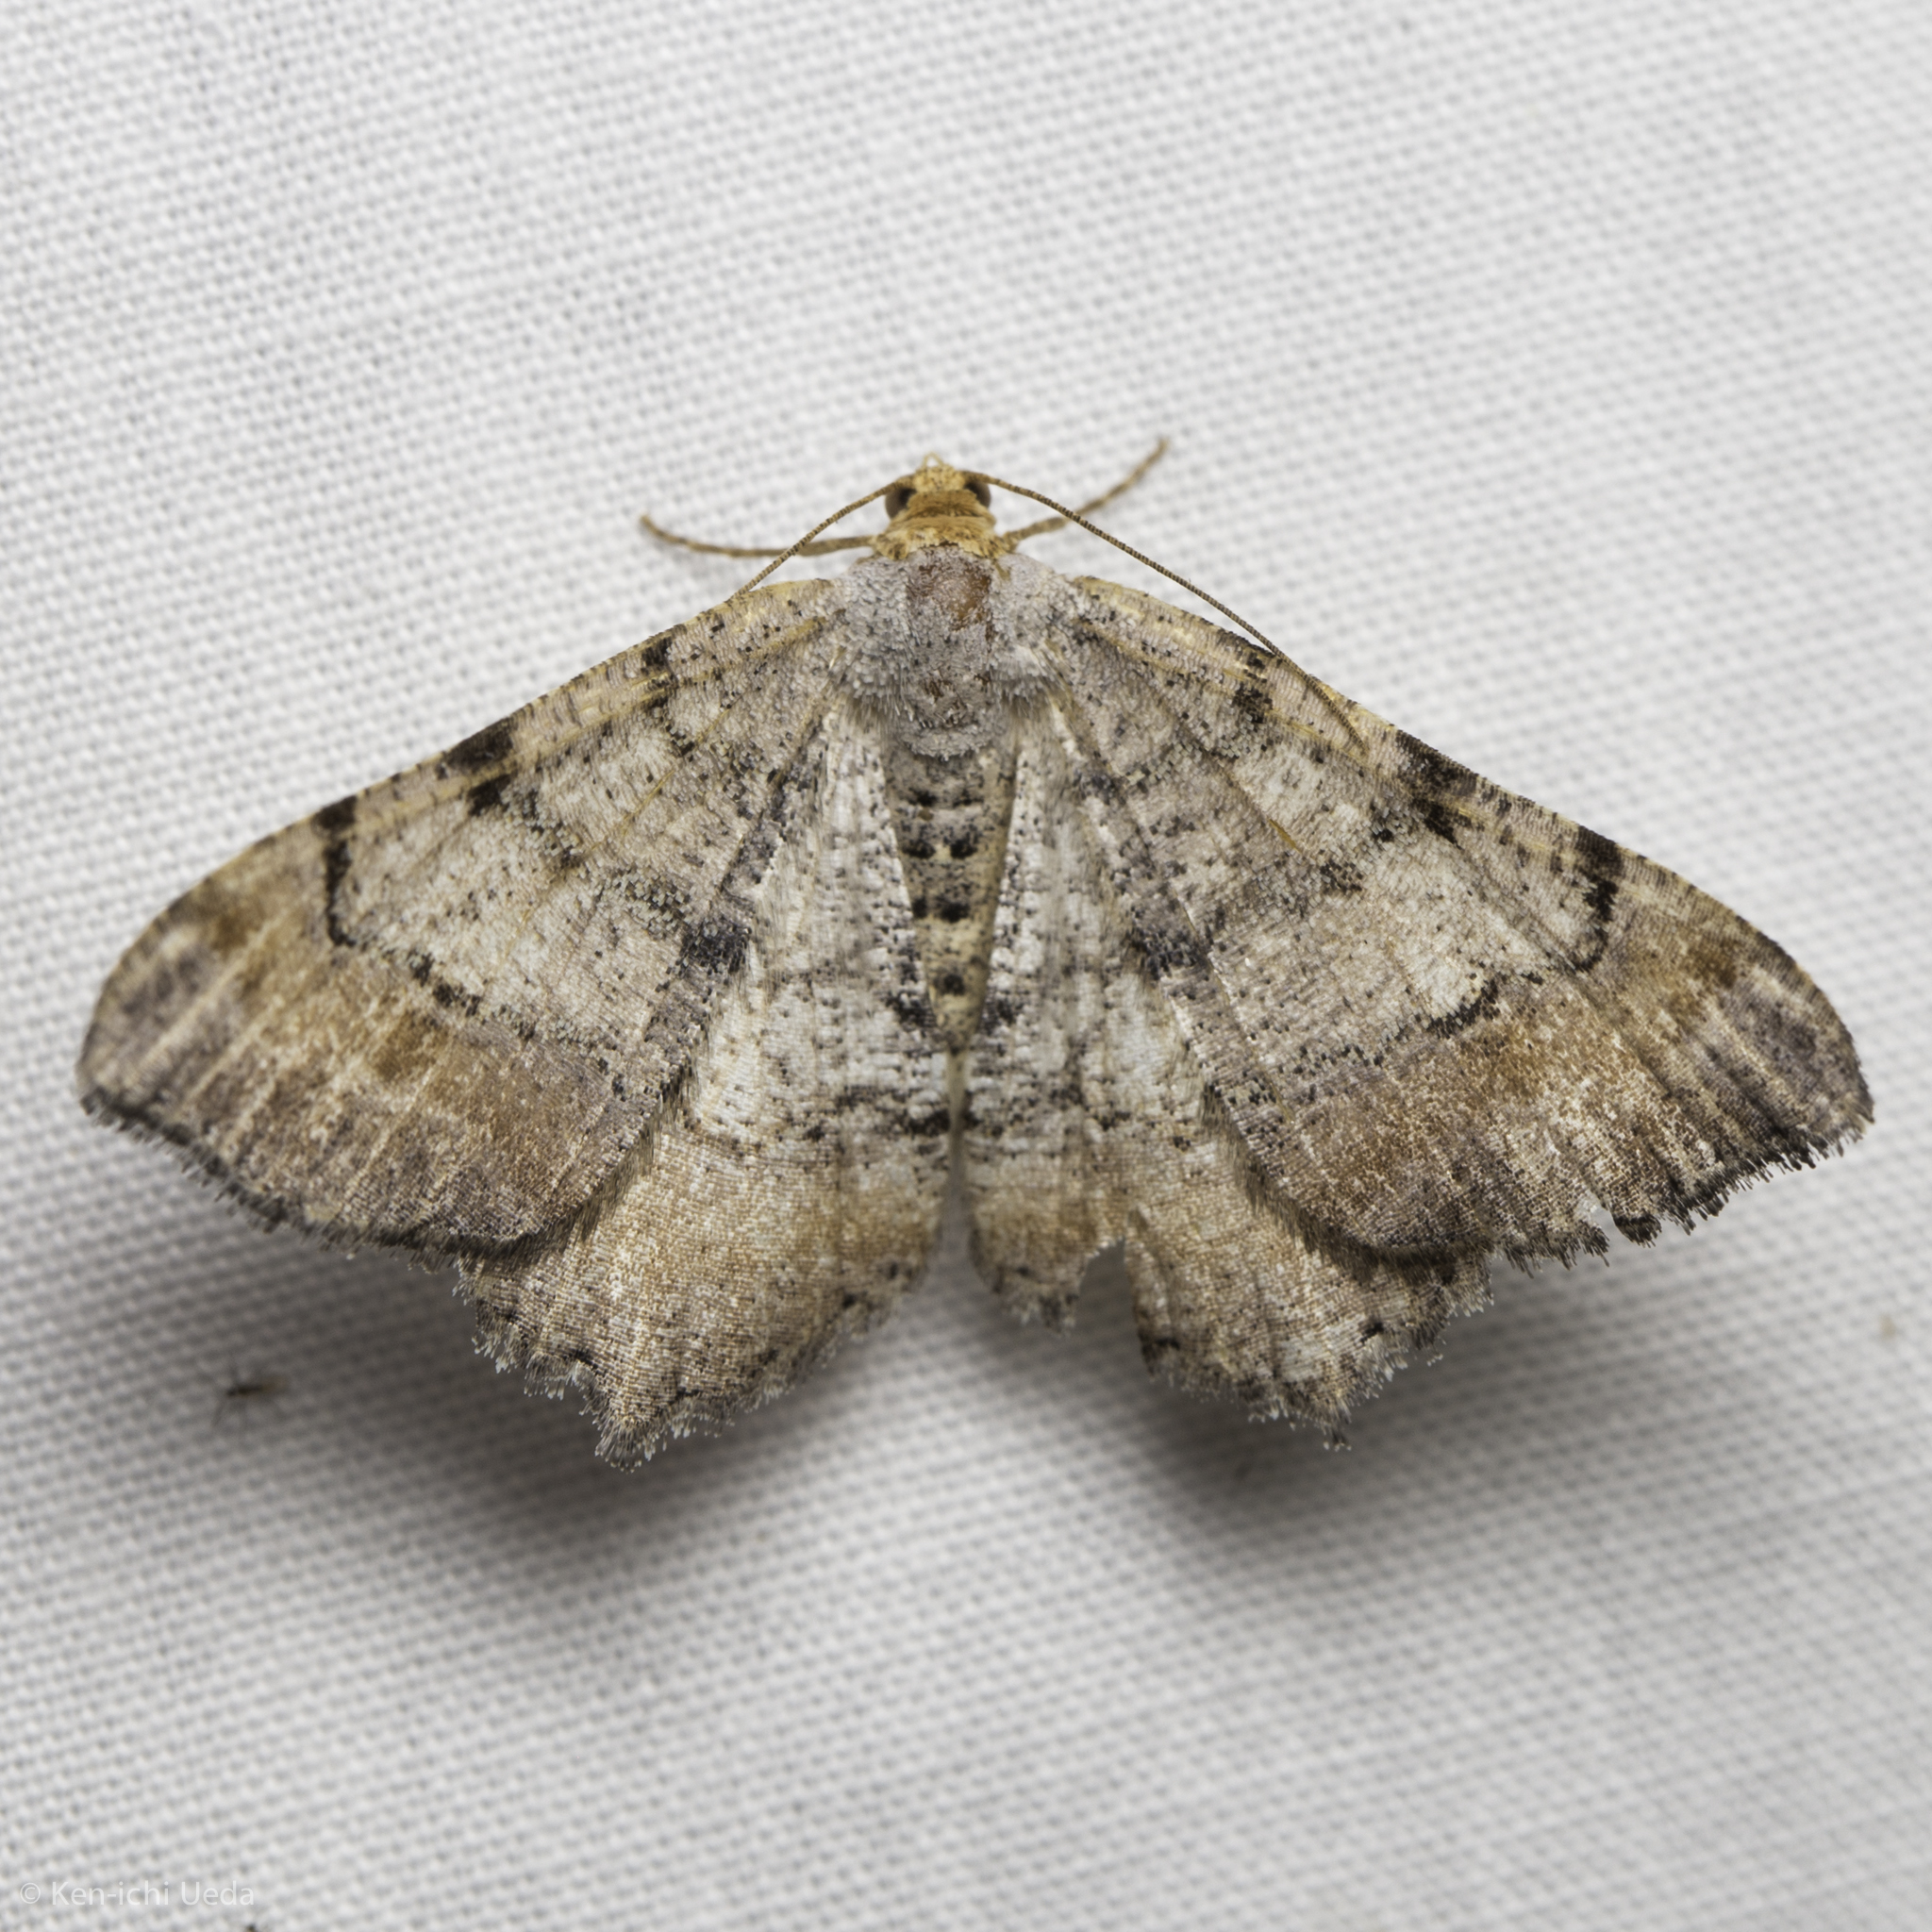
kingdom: Animalia
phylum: Arthropoda
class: Insecta
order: Lepidoptera
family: Geometridae
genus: Macaria
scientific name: Macaria adonis
